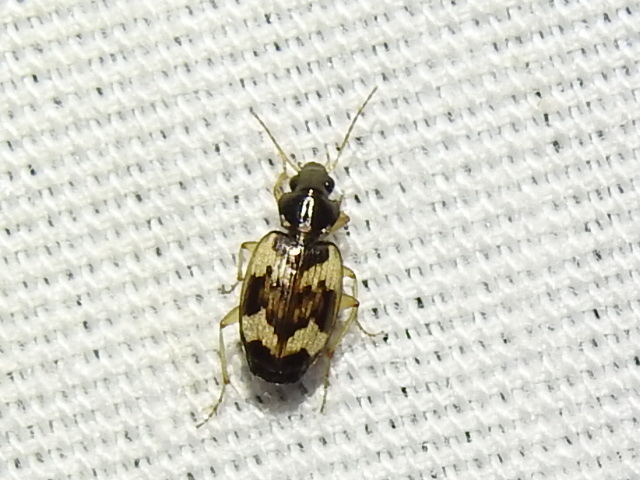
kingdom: Animalia
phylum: Arthropoda
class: Insecta
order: Coleoptera
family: Carabidae
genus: Tetragonoderus
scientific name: Tetragonoderus fasciatus
